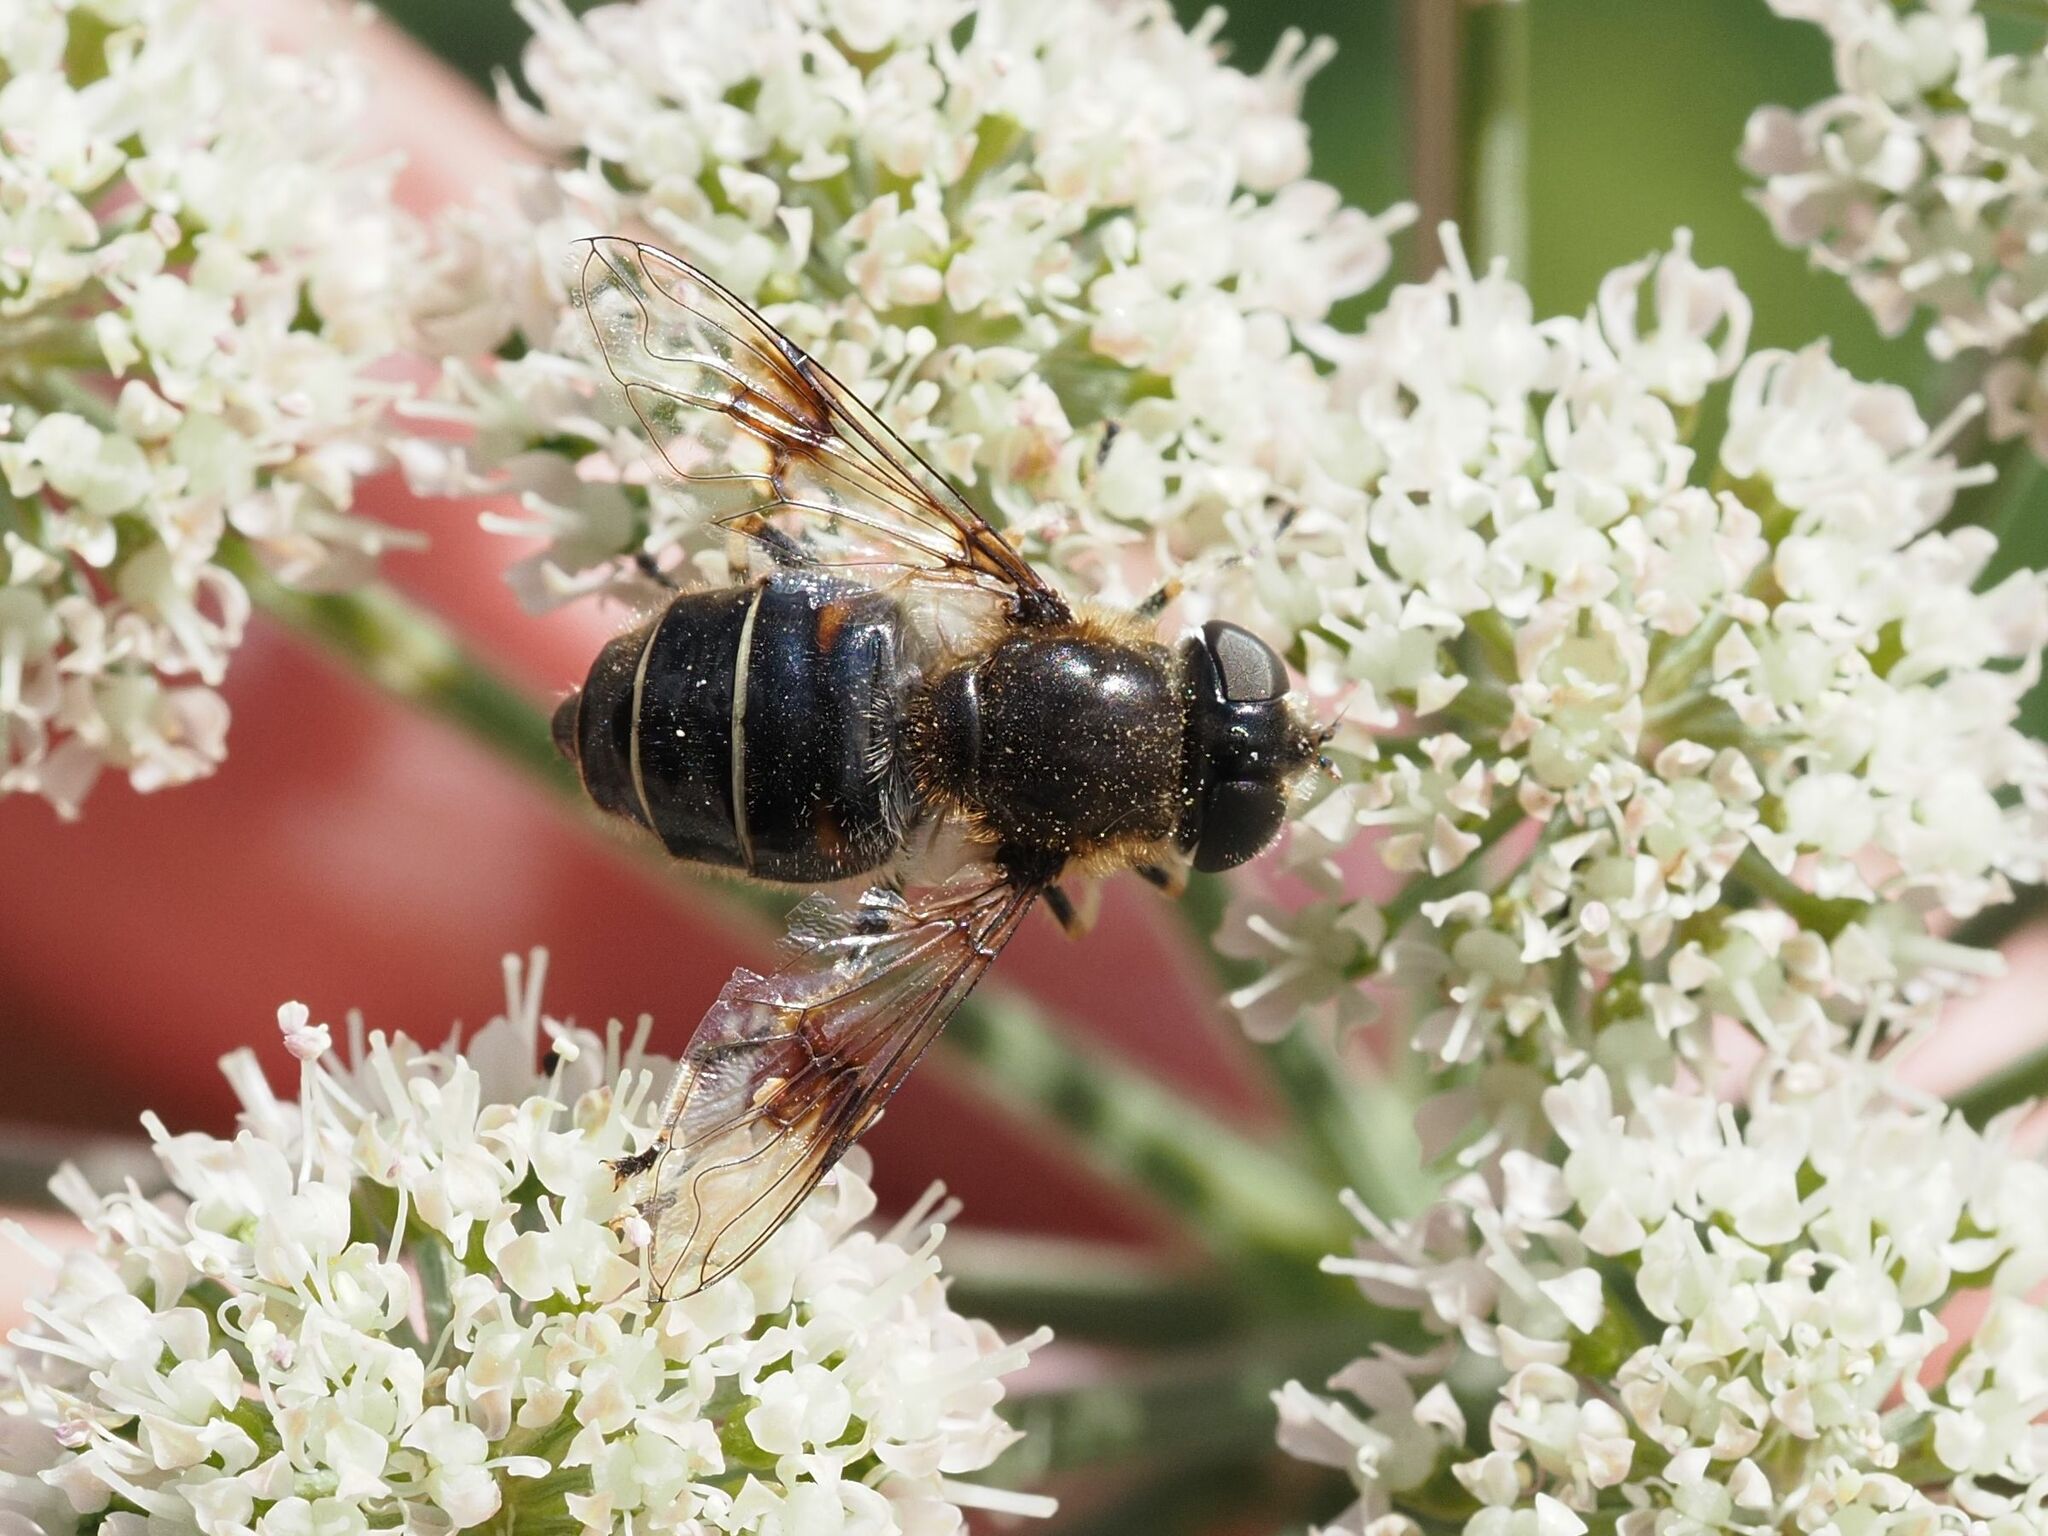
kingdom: Animalia
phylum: Arthropoda
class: Insecta
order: Diptera
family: Syrphidae
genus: Eristalis
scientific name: Eristalis rupium
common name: Hover fly
